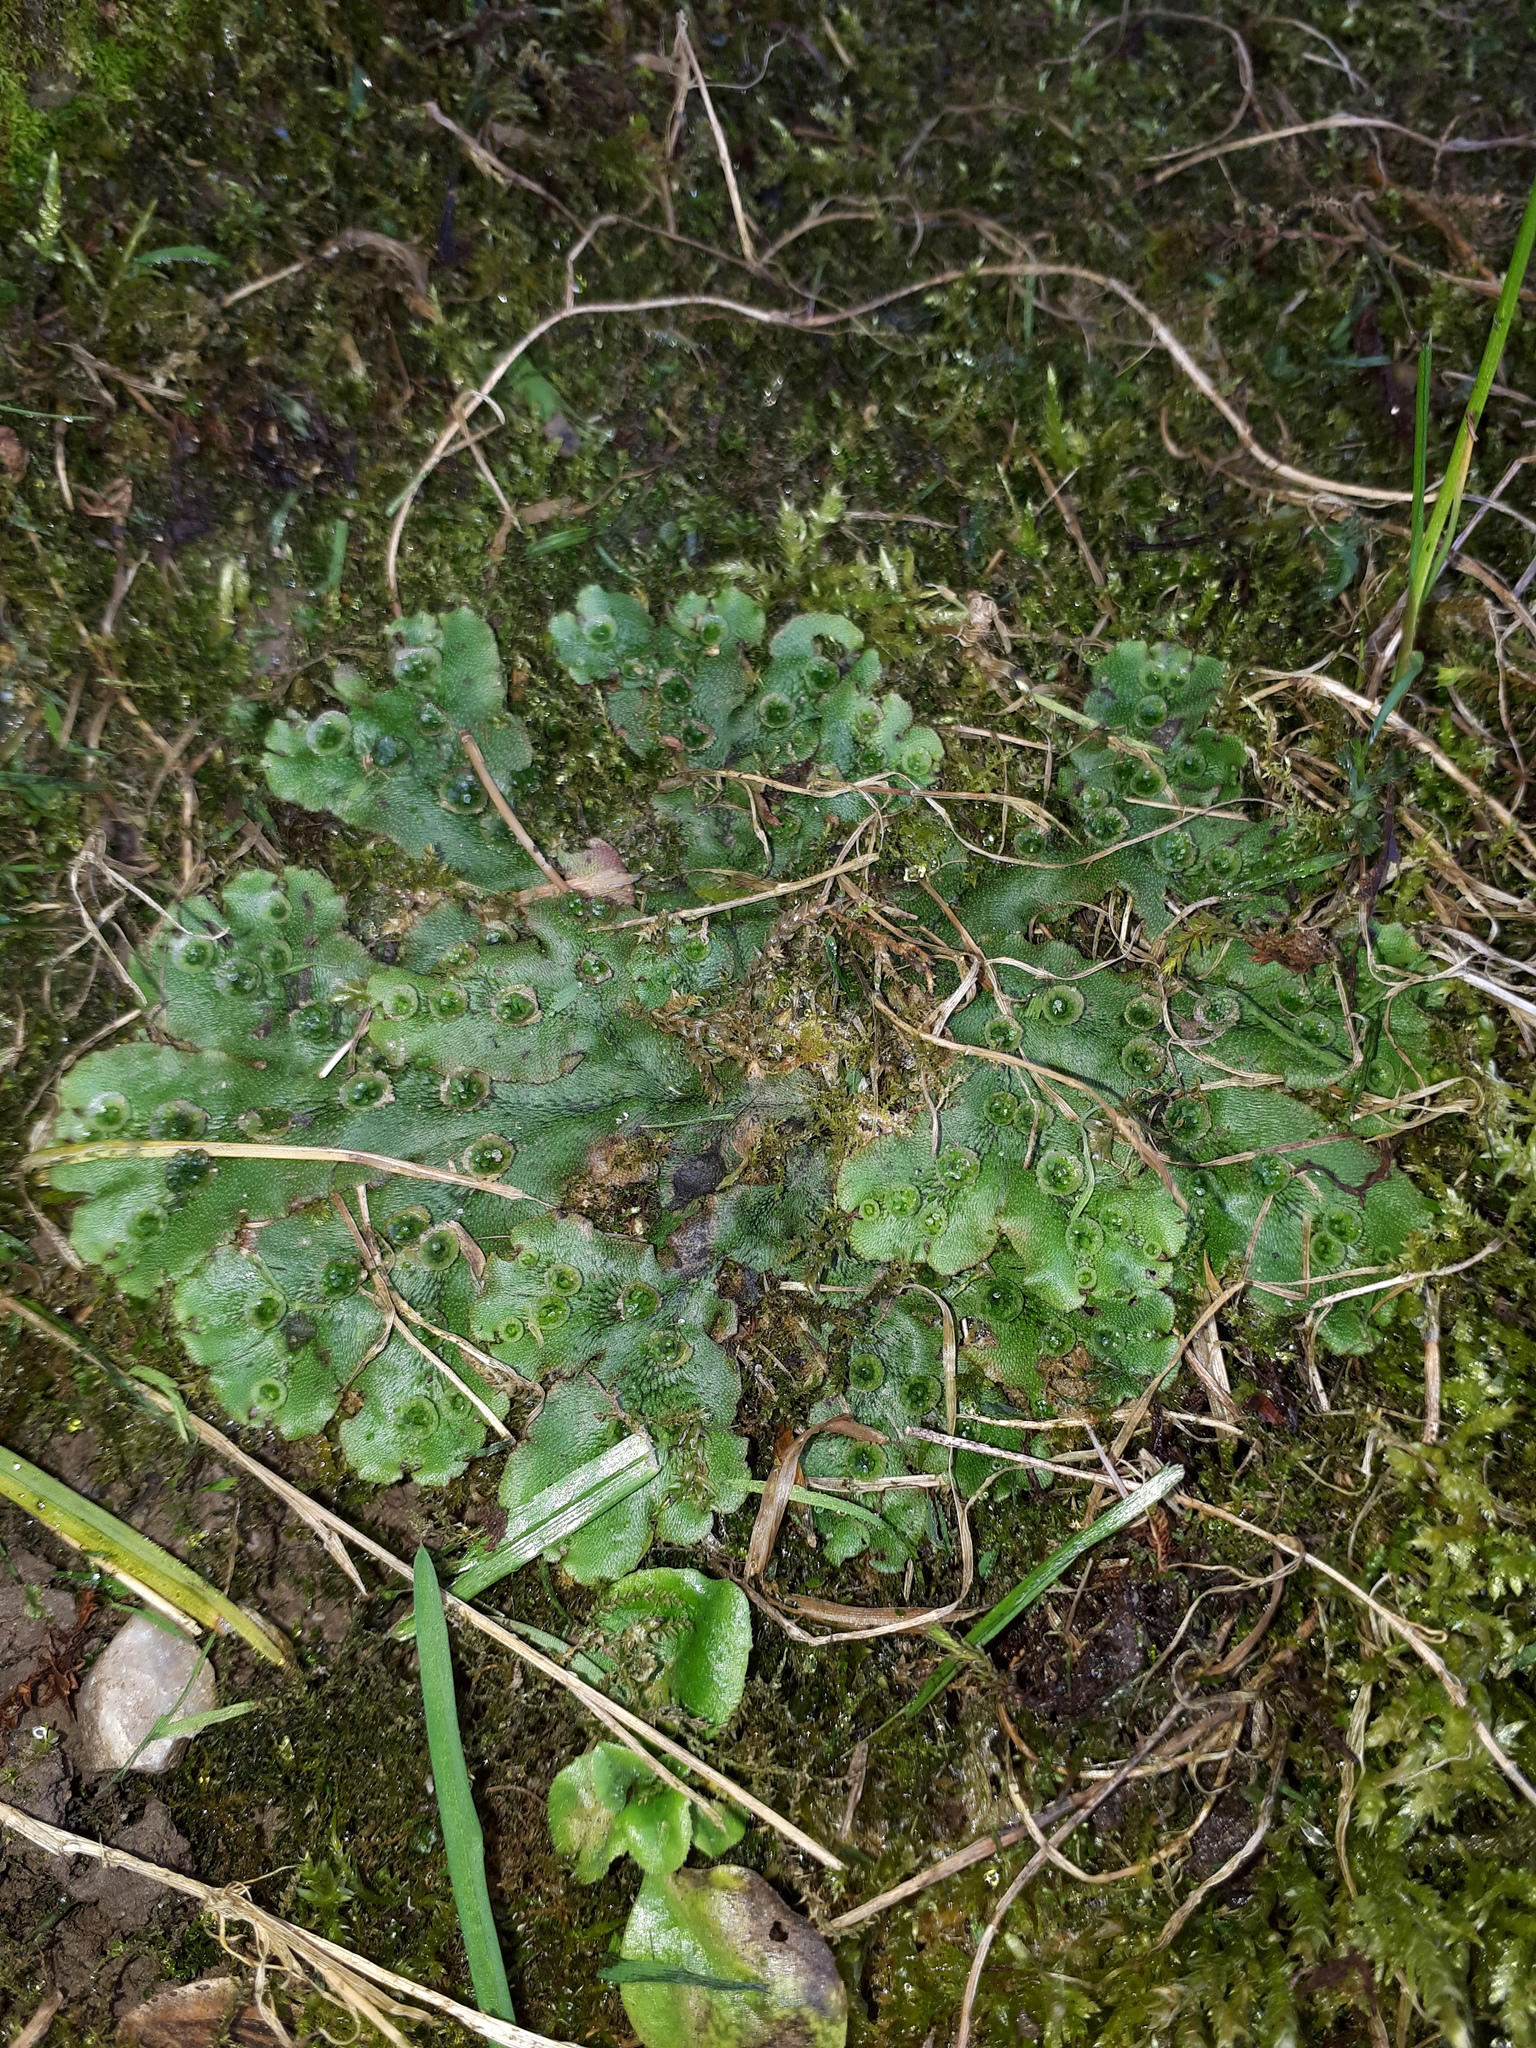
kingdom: Plantae
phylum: Marchantiophyta
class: Marchantiopsida
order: Marchantiales
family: Marchantiaceae
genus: Marchantia
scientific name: Marchantia polymorpha
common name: Common liverwort
